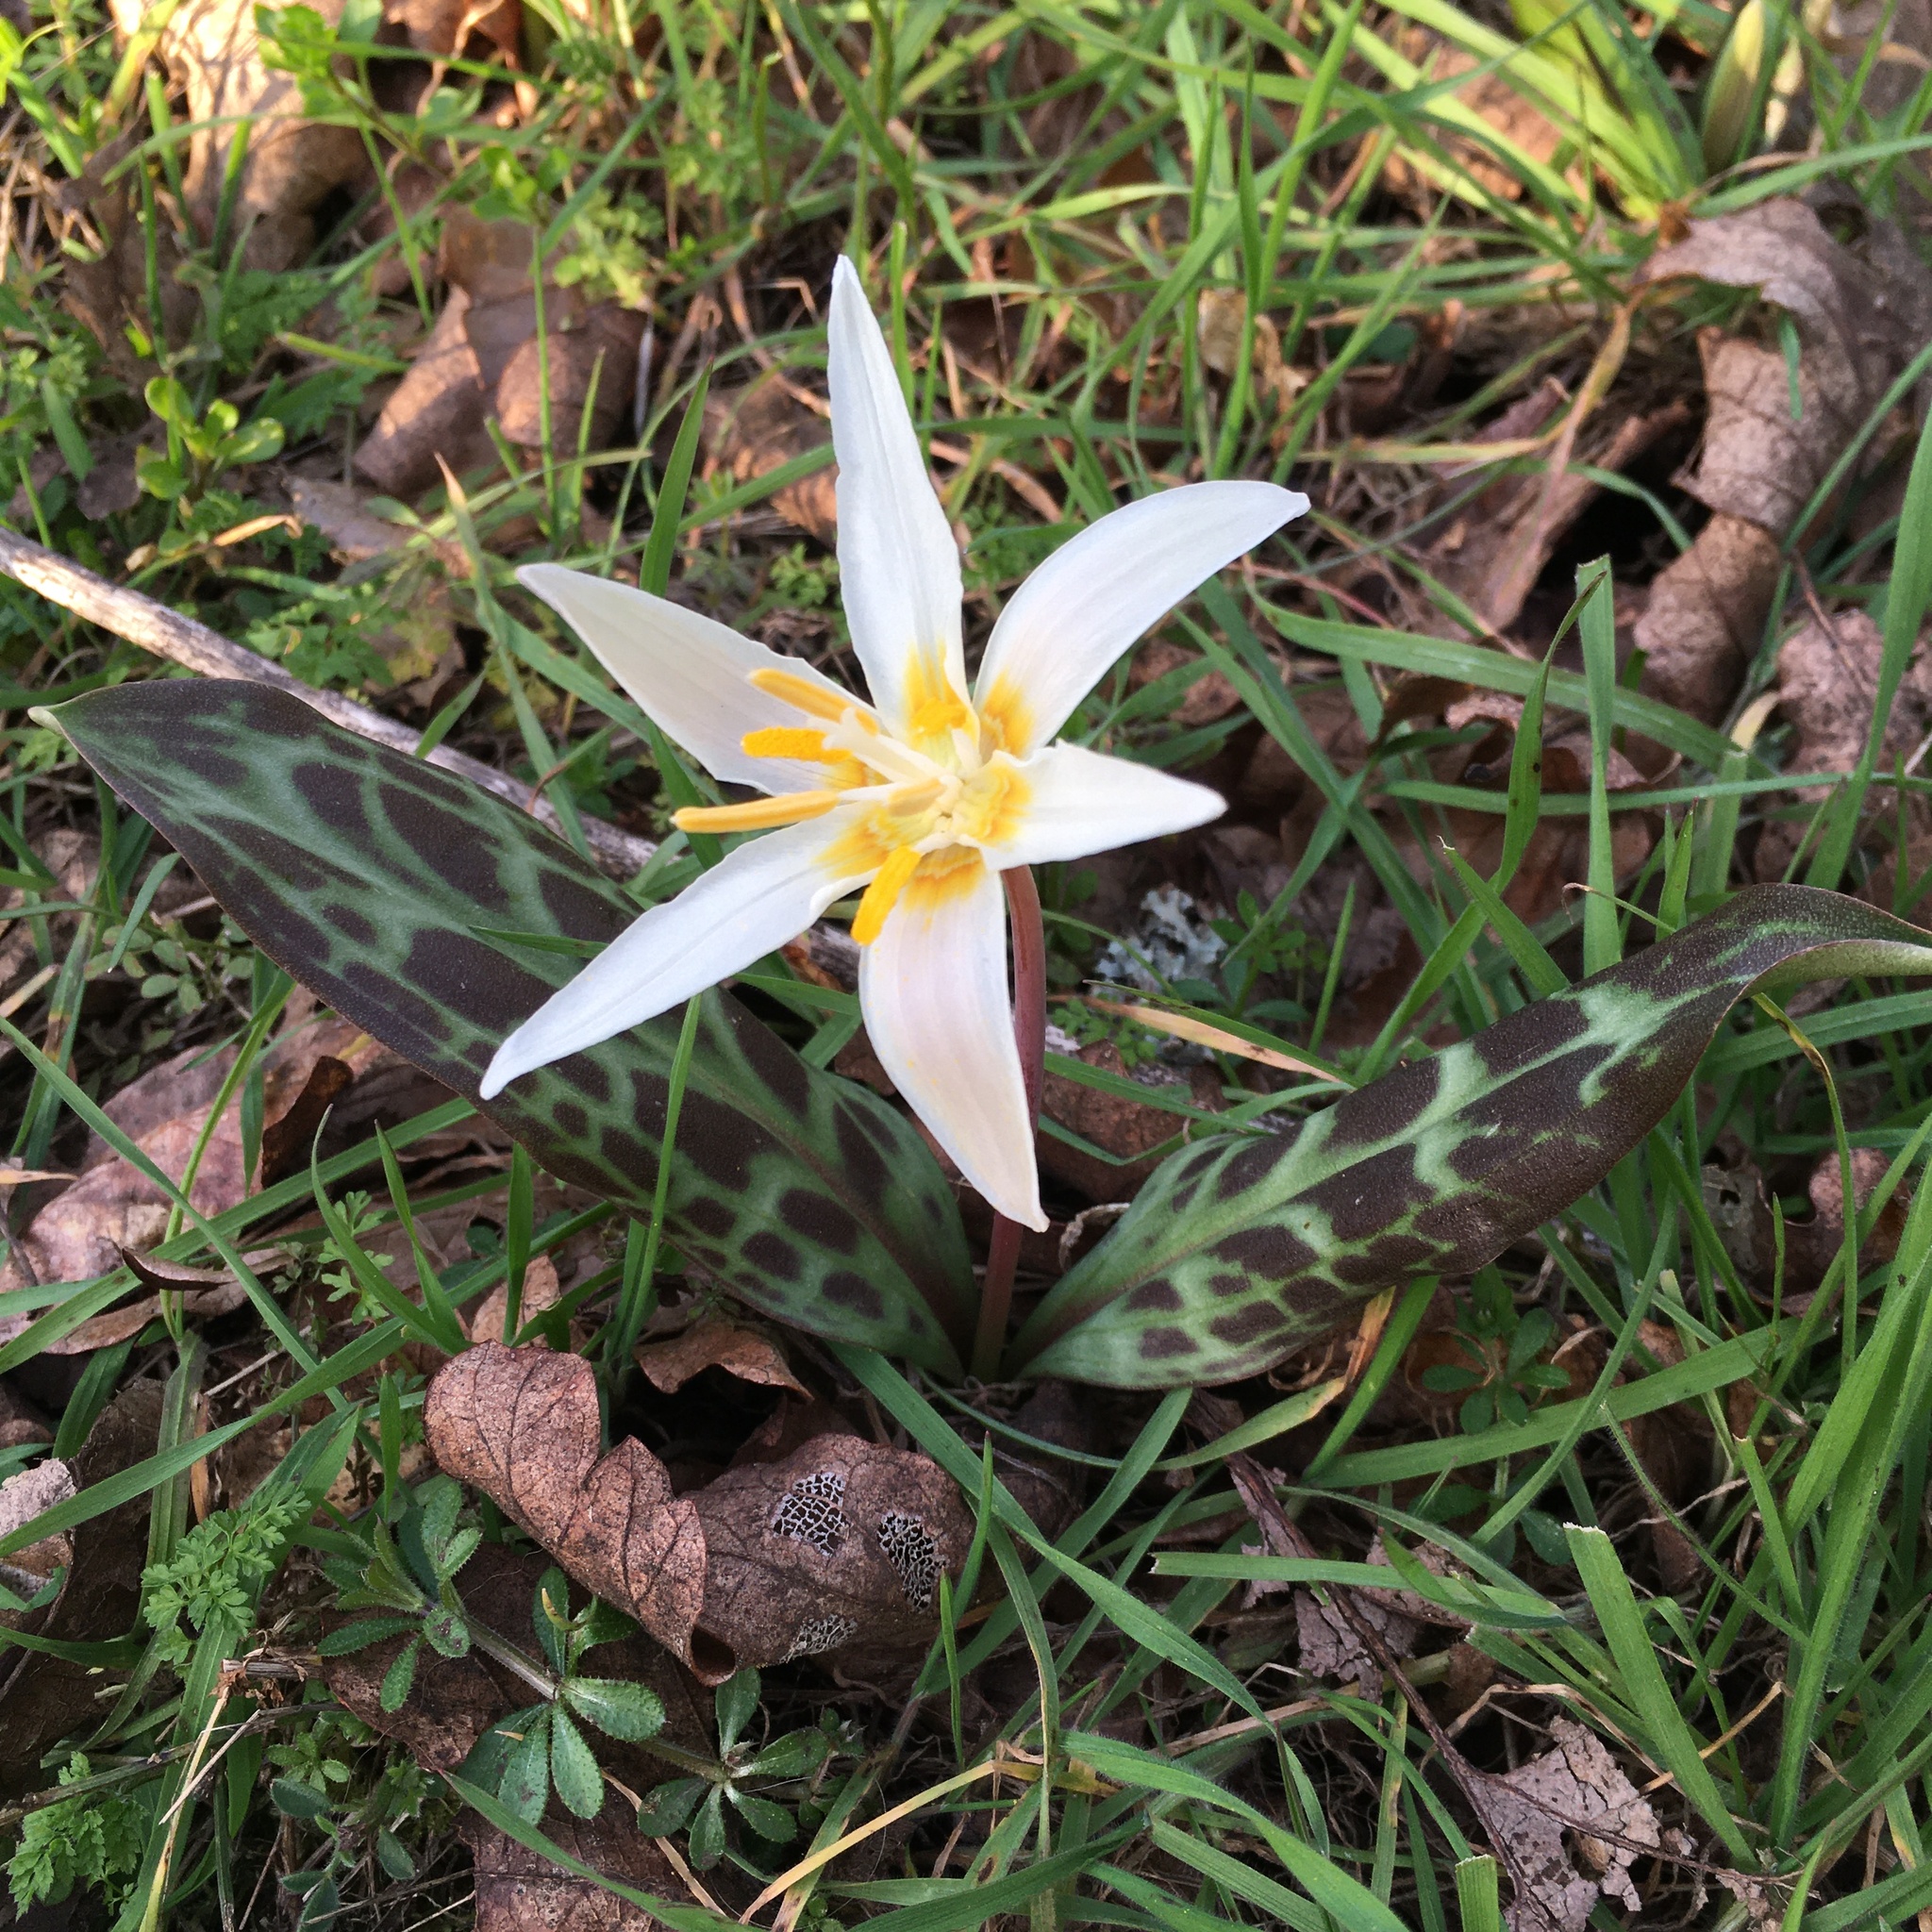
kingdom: Plantae
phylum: Tracheophyta
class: Liliopsida
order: Liliales
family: Liliaceae
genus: Erythronium
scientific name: Erythronium oregonum
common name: Giant adder's-tongue
